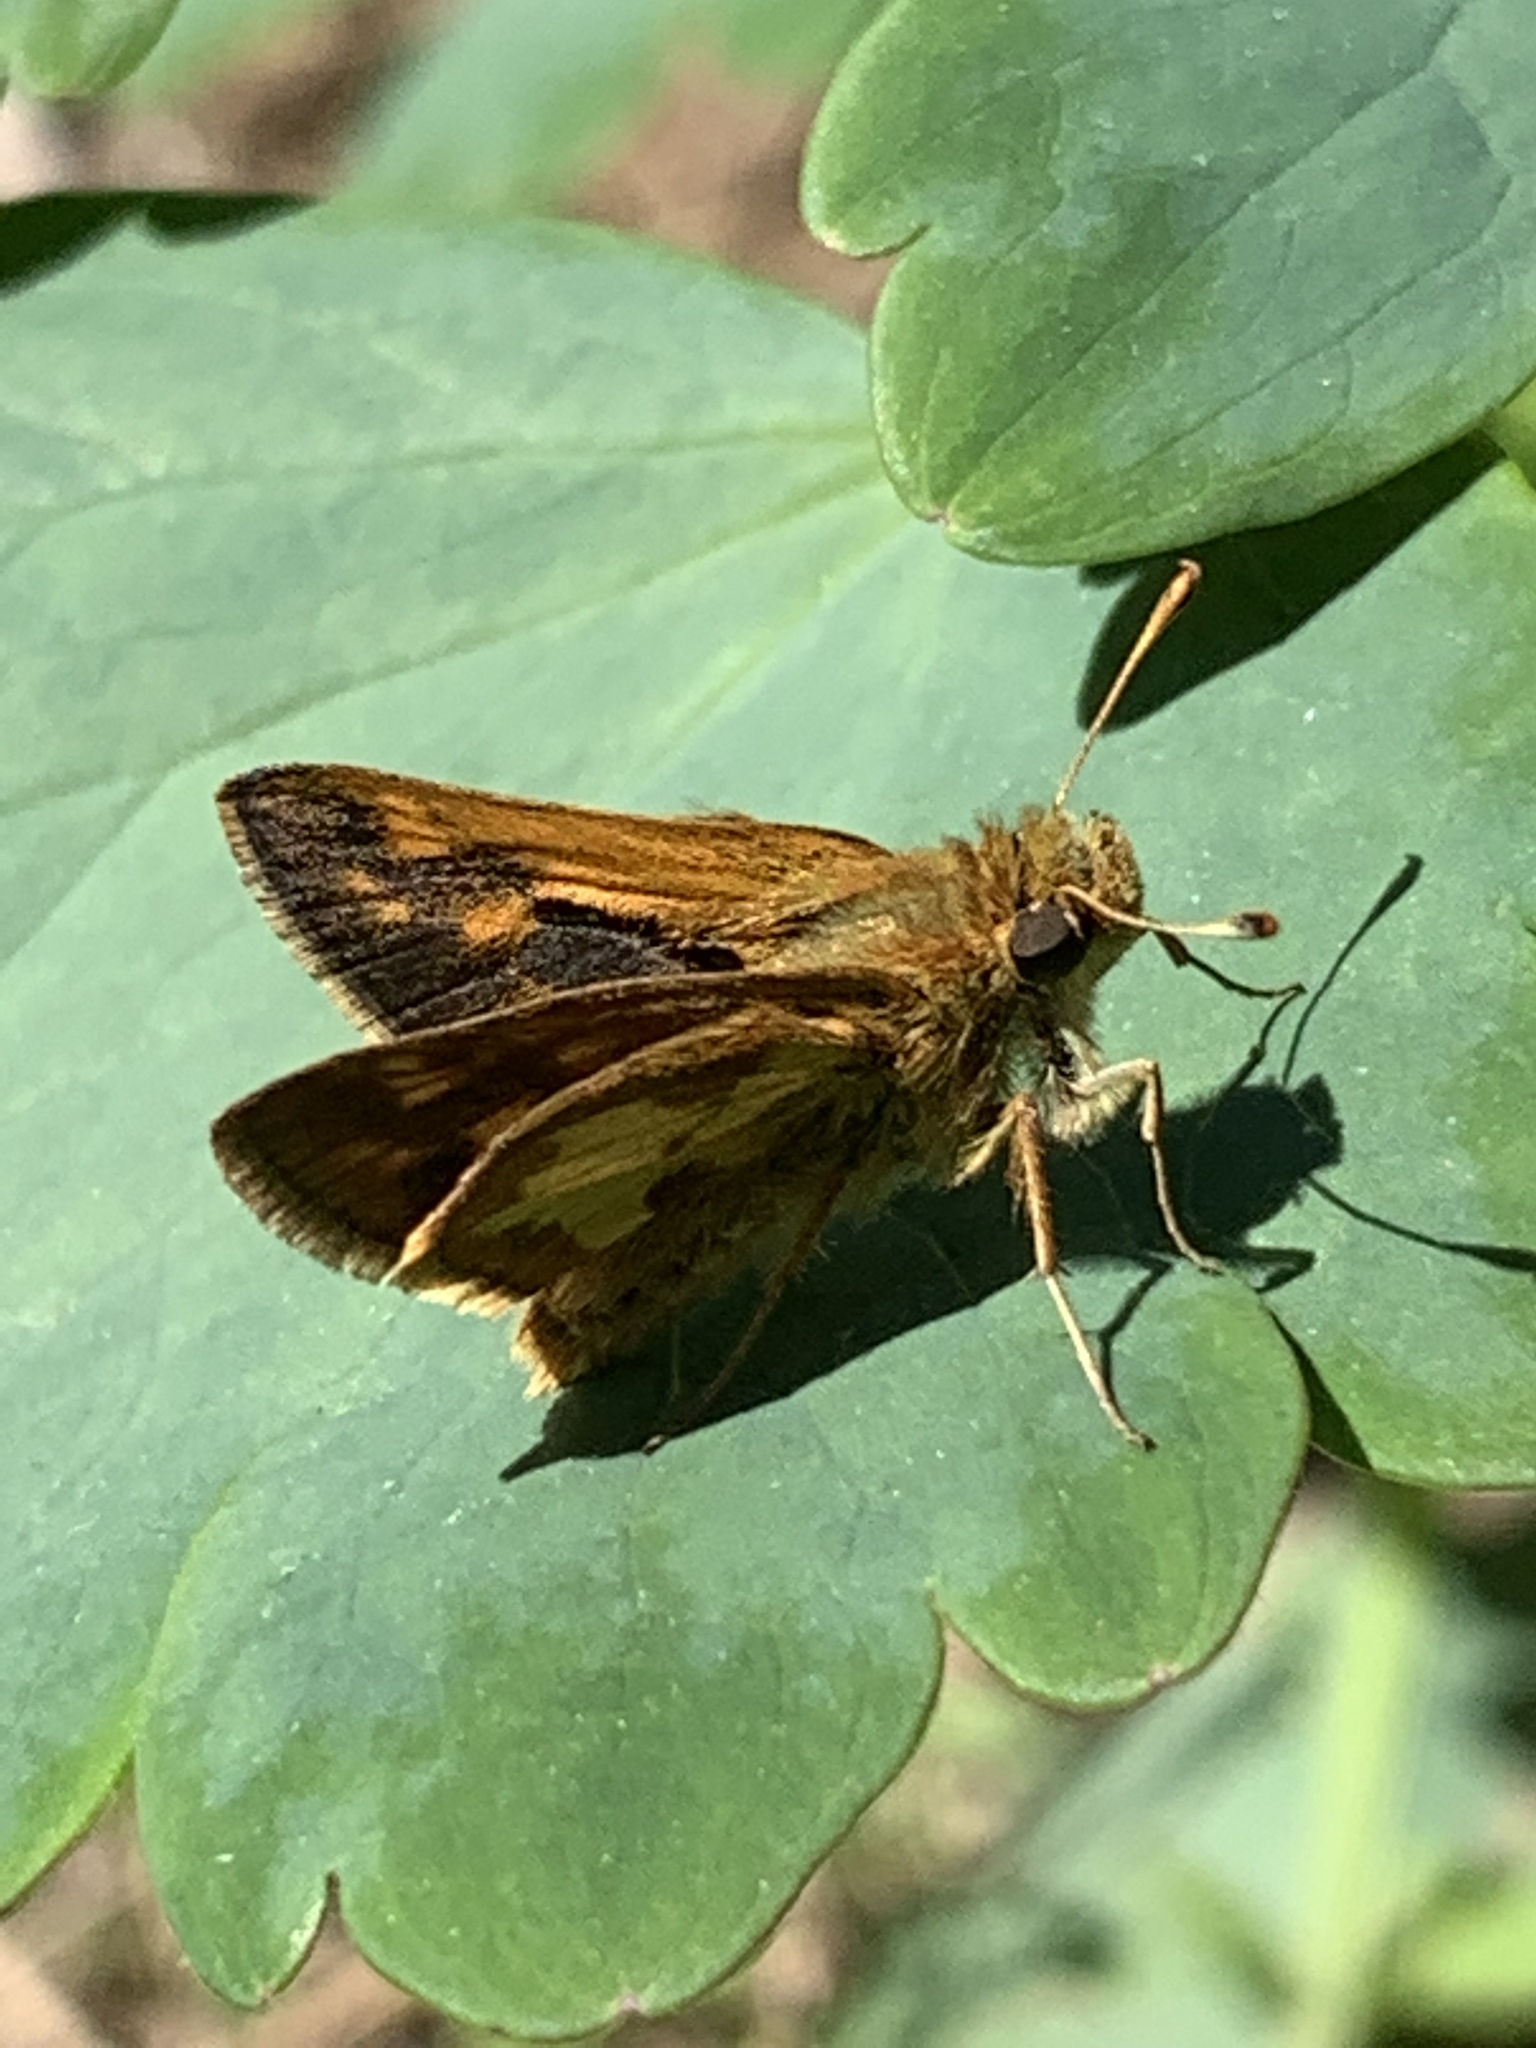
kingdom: Animalia
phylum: Arthropoda
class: Insecta
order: Lepidoptera
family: Hesperiidae
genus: Polites
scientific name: Polites coras
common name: Peck's skipper
